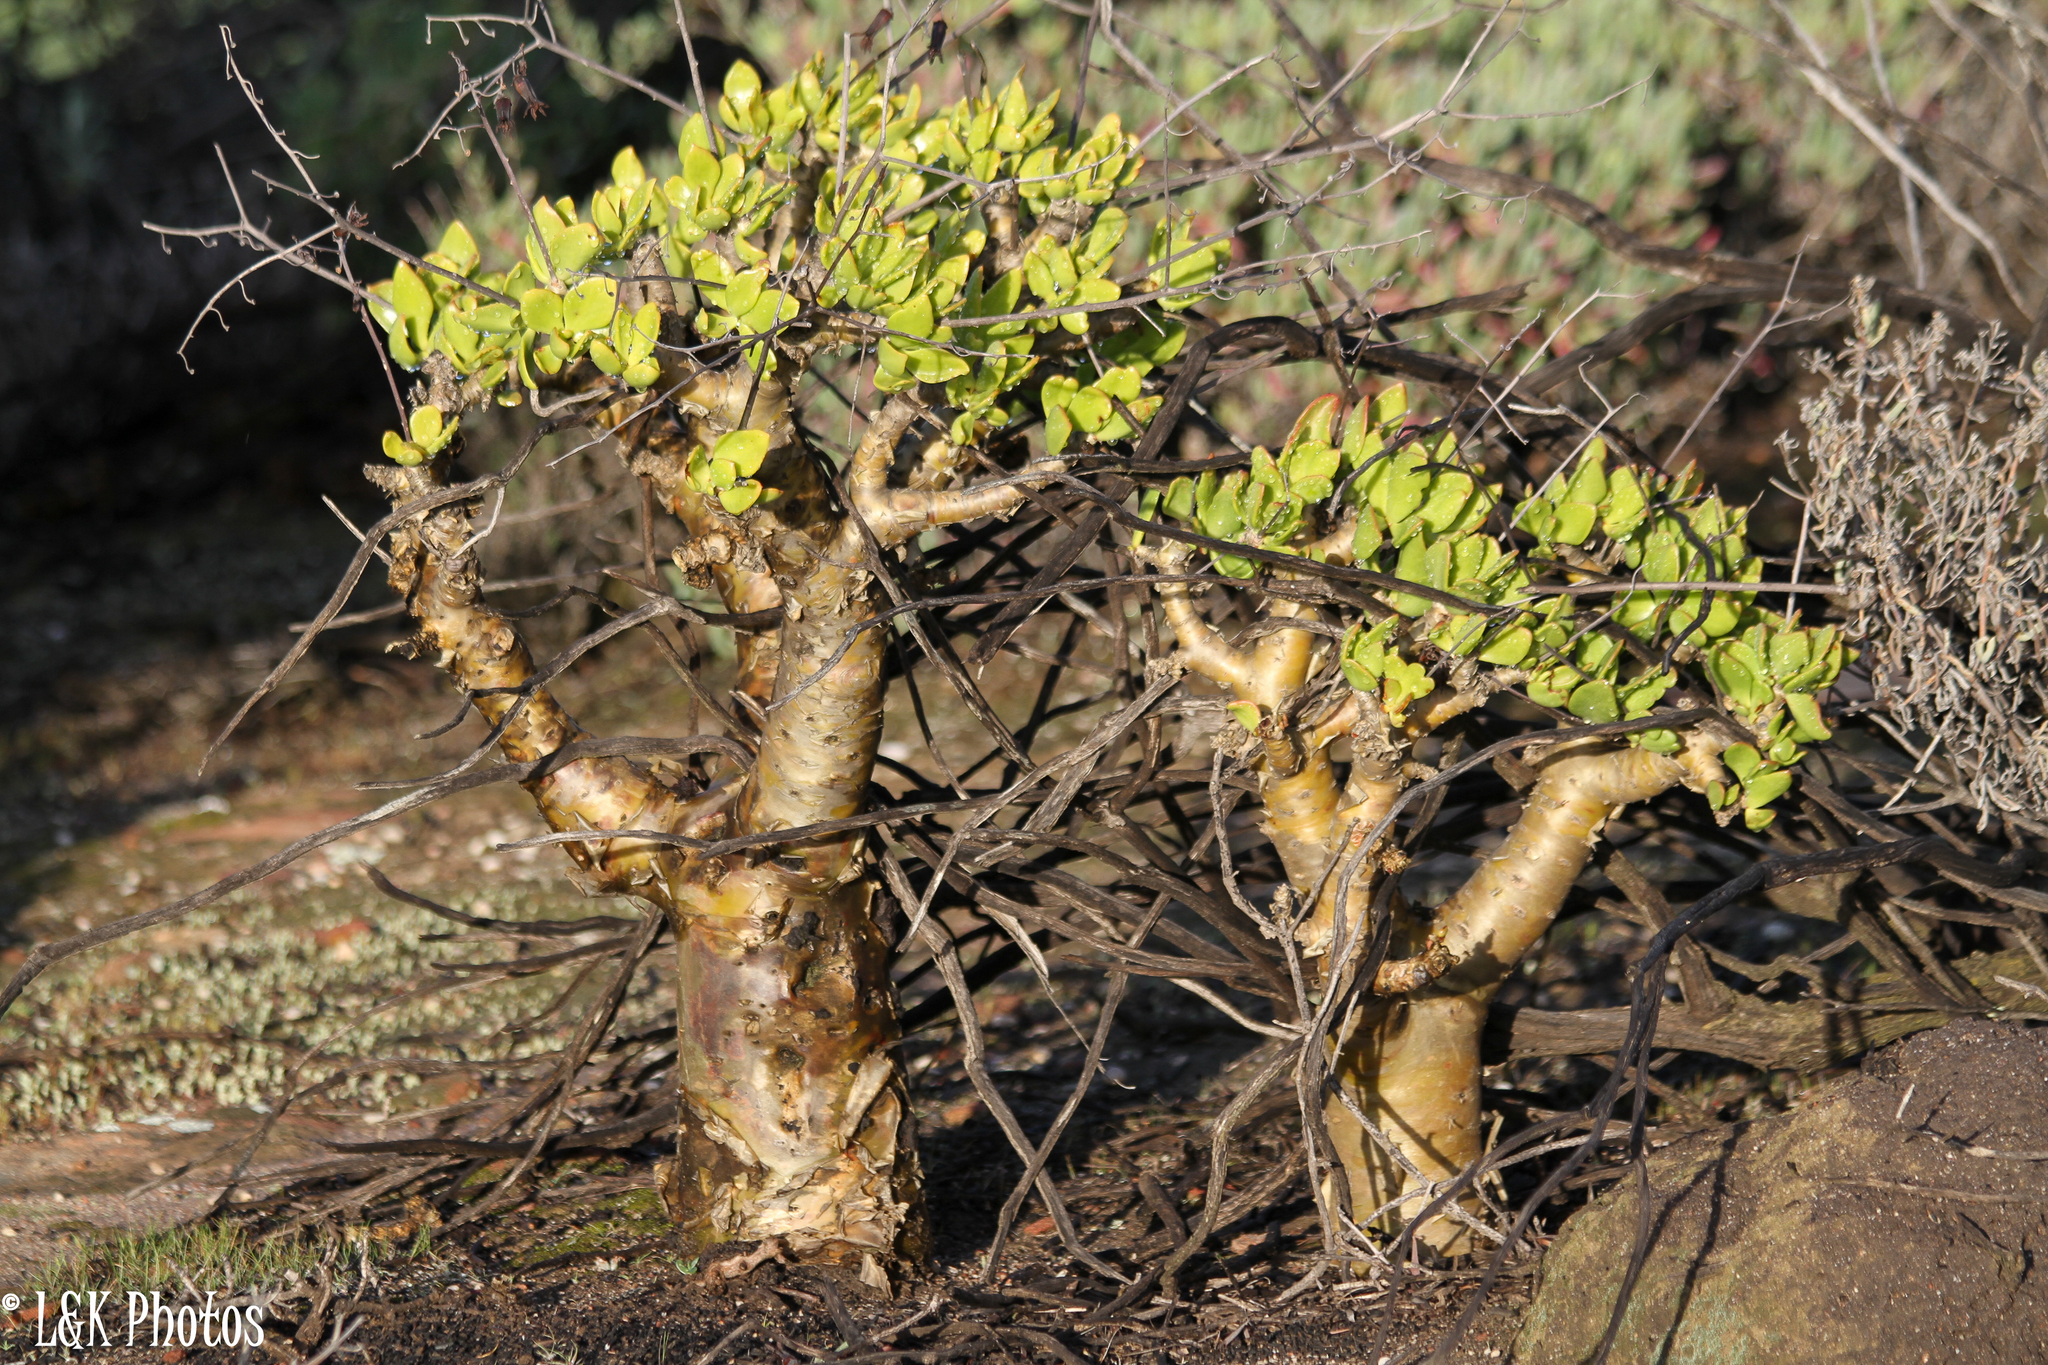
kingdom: Plantae
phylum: Tracheophyta
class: Magnoliopsida
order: Saxifragales
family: Crassulaceae
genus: Tylecodon
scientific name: Tylecodon paniculatus
